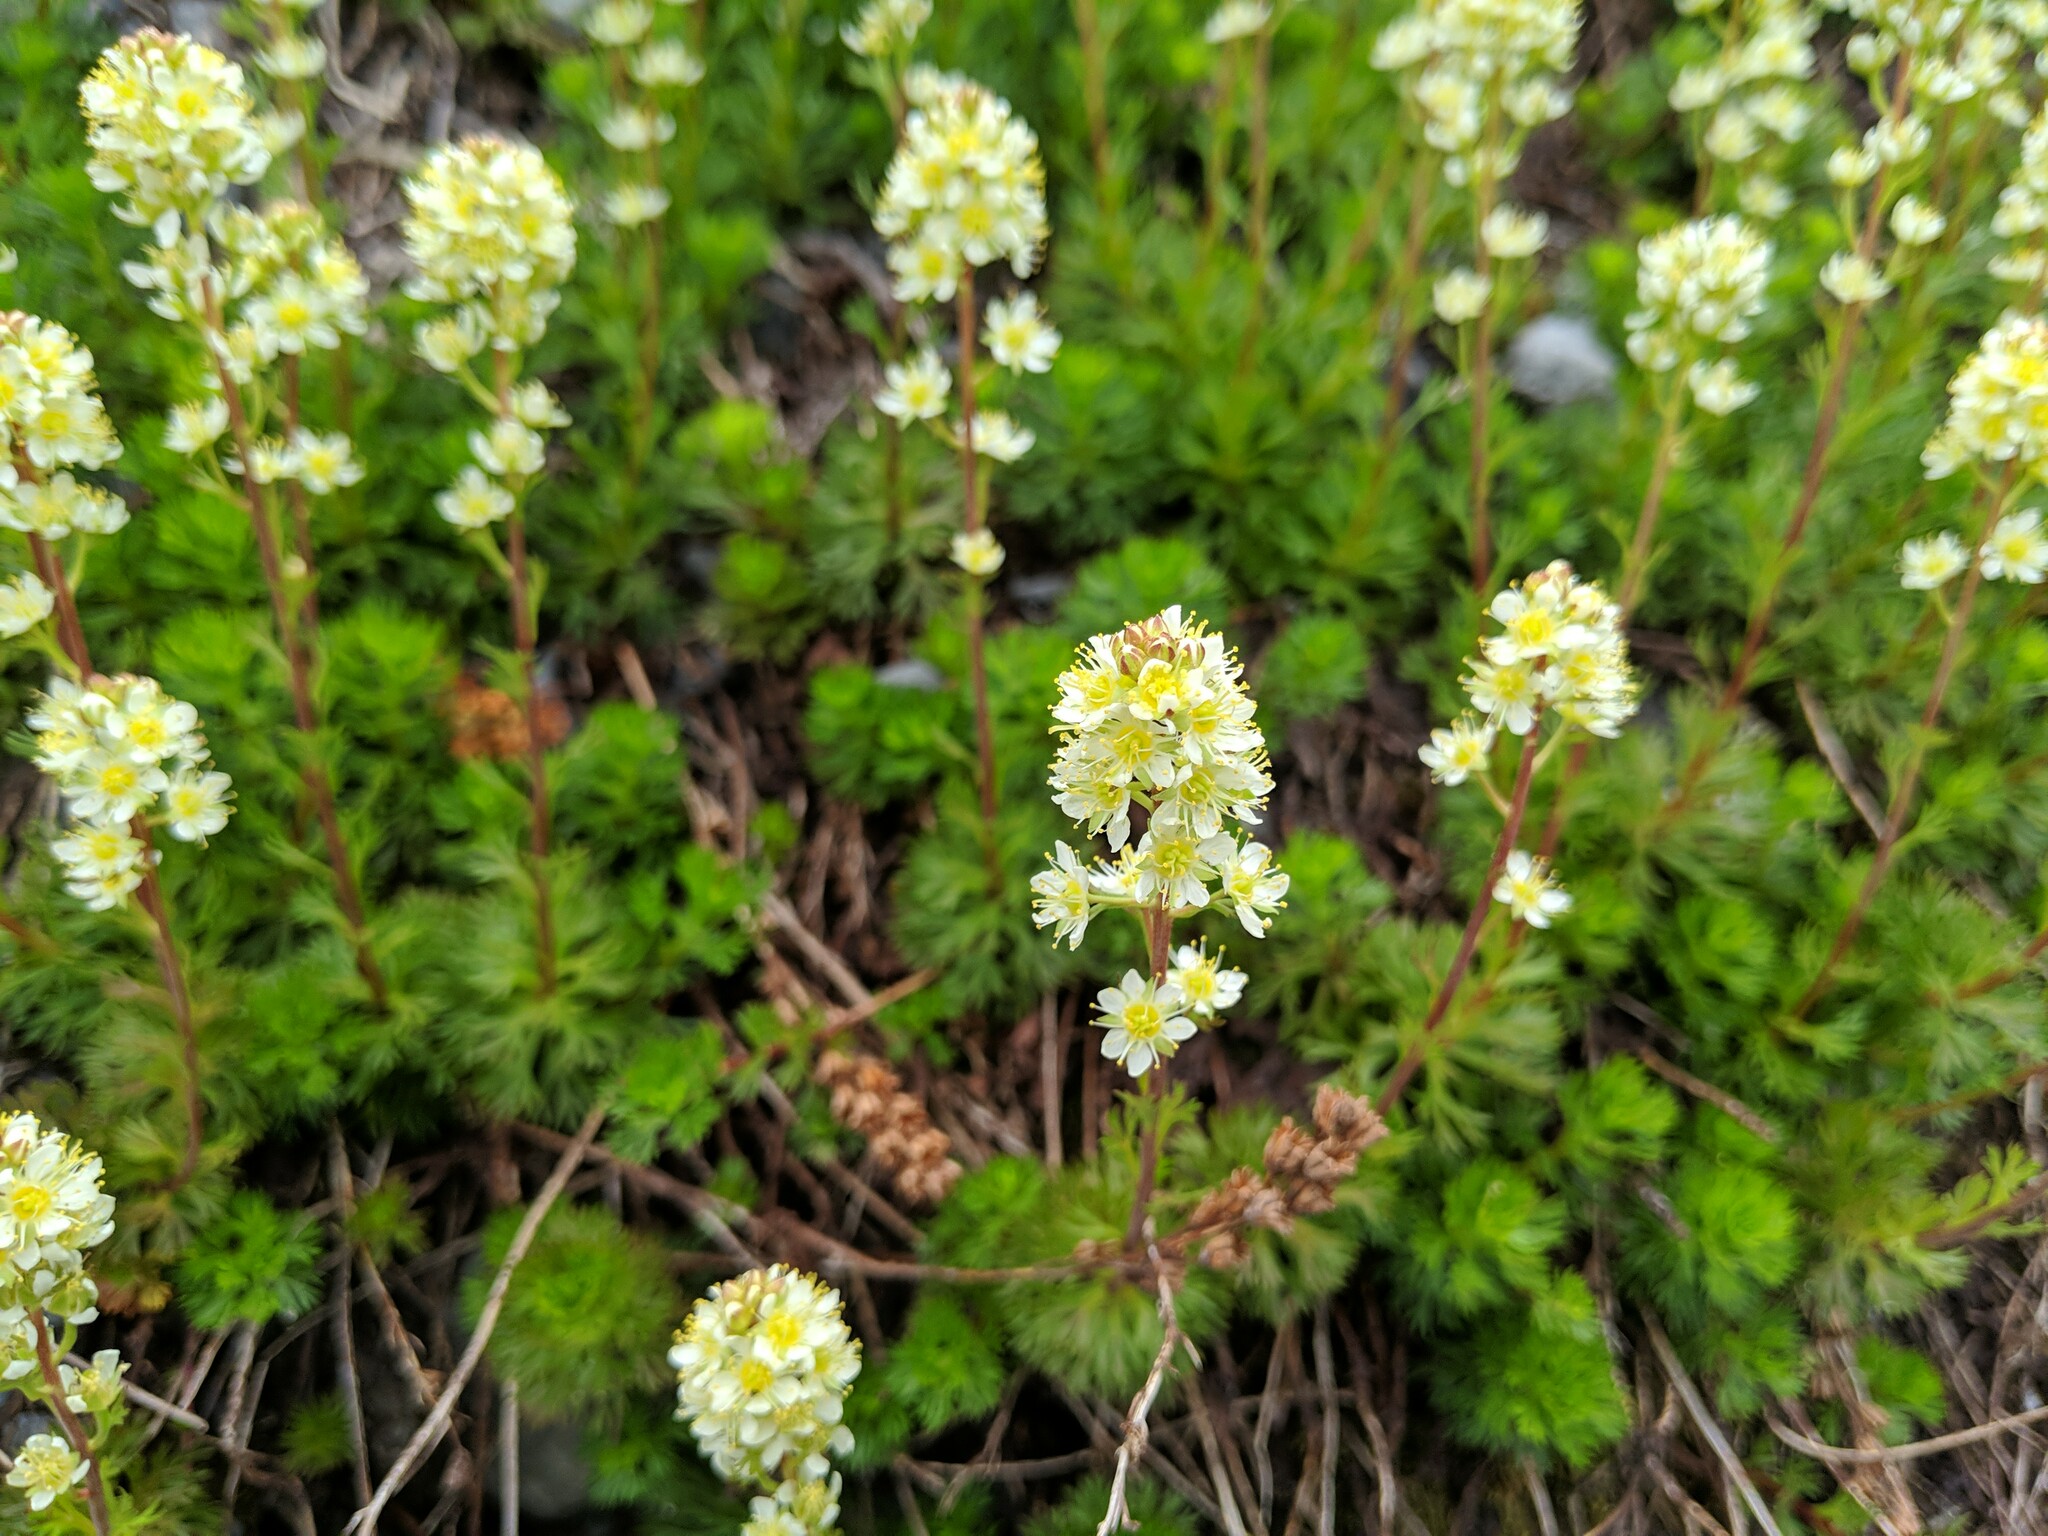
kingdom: Plantae
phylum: Tracheophyta
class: Magnoliopsida
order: Rosales
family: Rosaceae
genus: Luetkea
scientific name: Luetkea pectinata
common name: Partridgefoot
